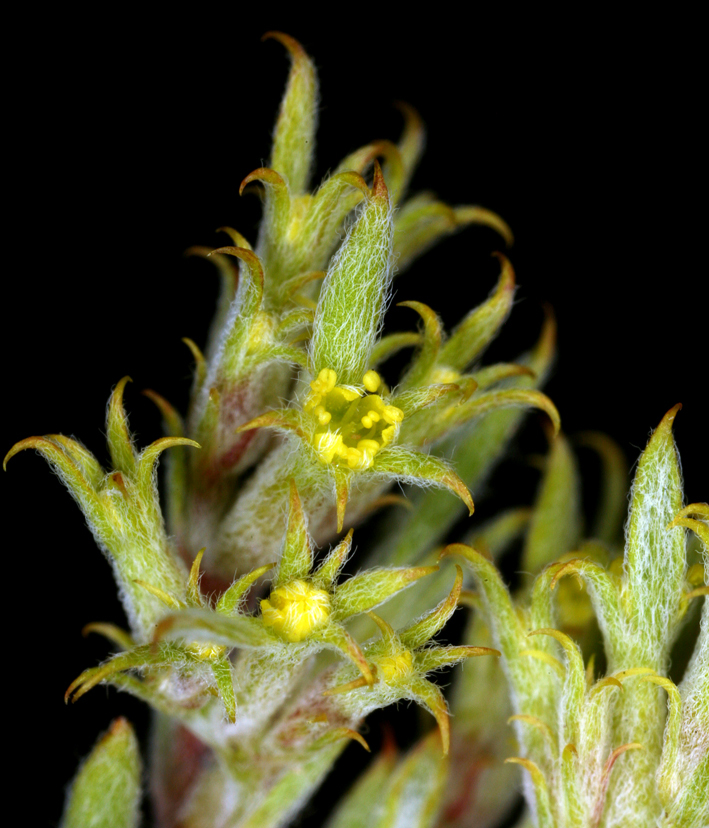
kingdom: Plantae
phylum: Tracheophyta
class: Magnoliopsida
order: Caryophyllales
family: Polygonaceae
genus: Chorizanthe
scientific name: Chorizanthe watsonii
